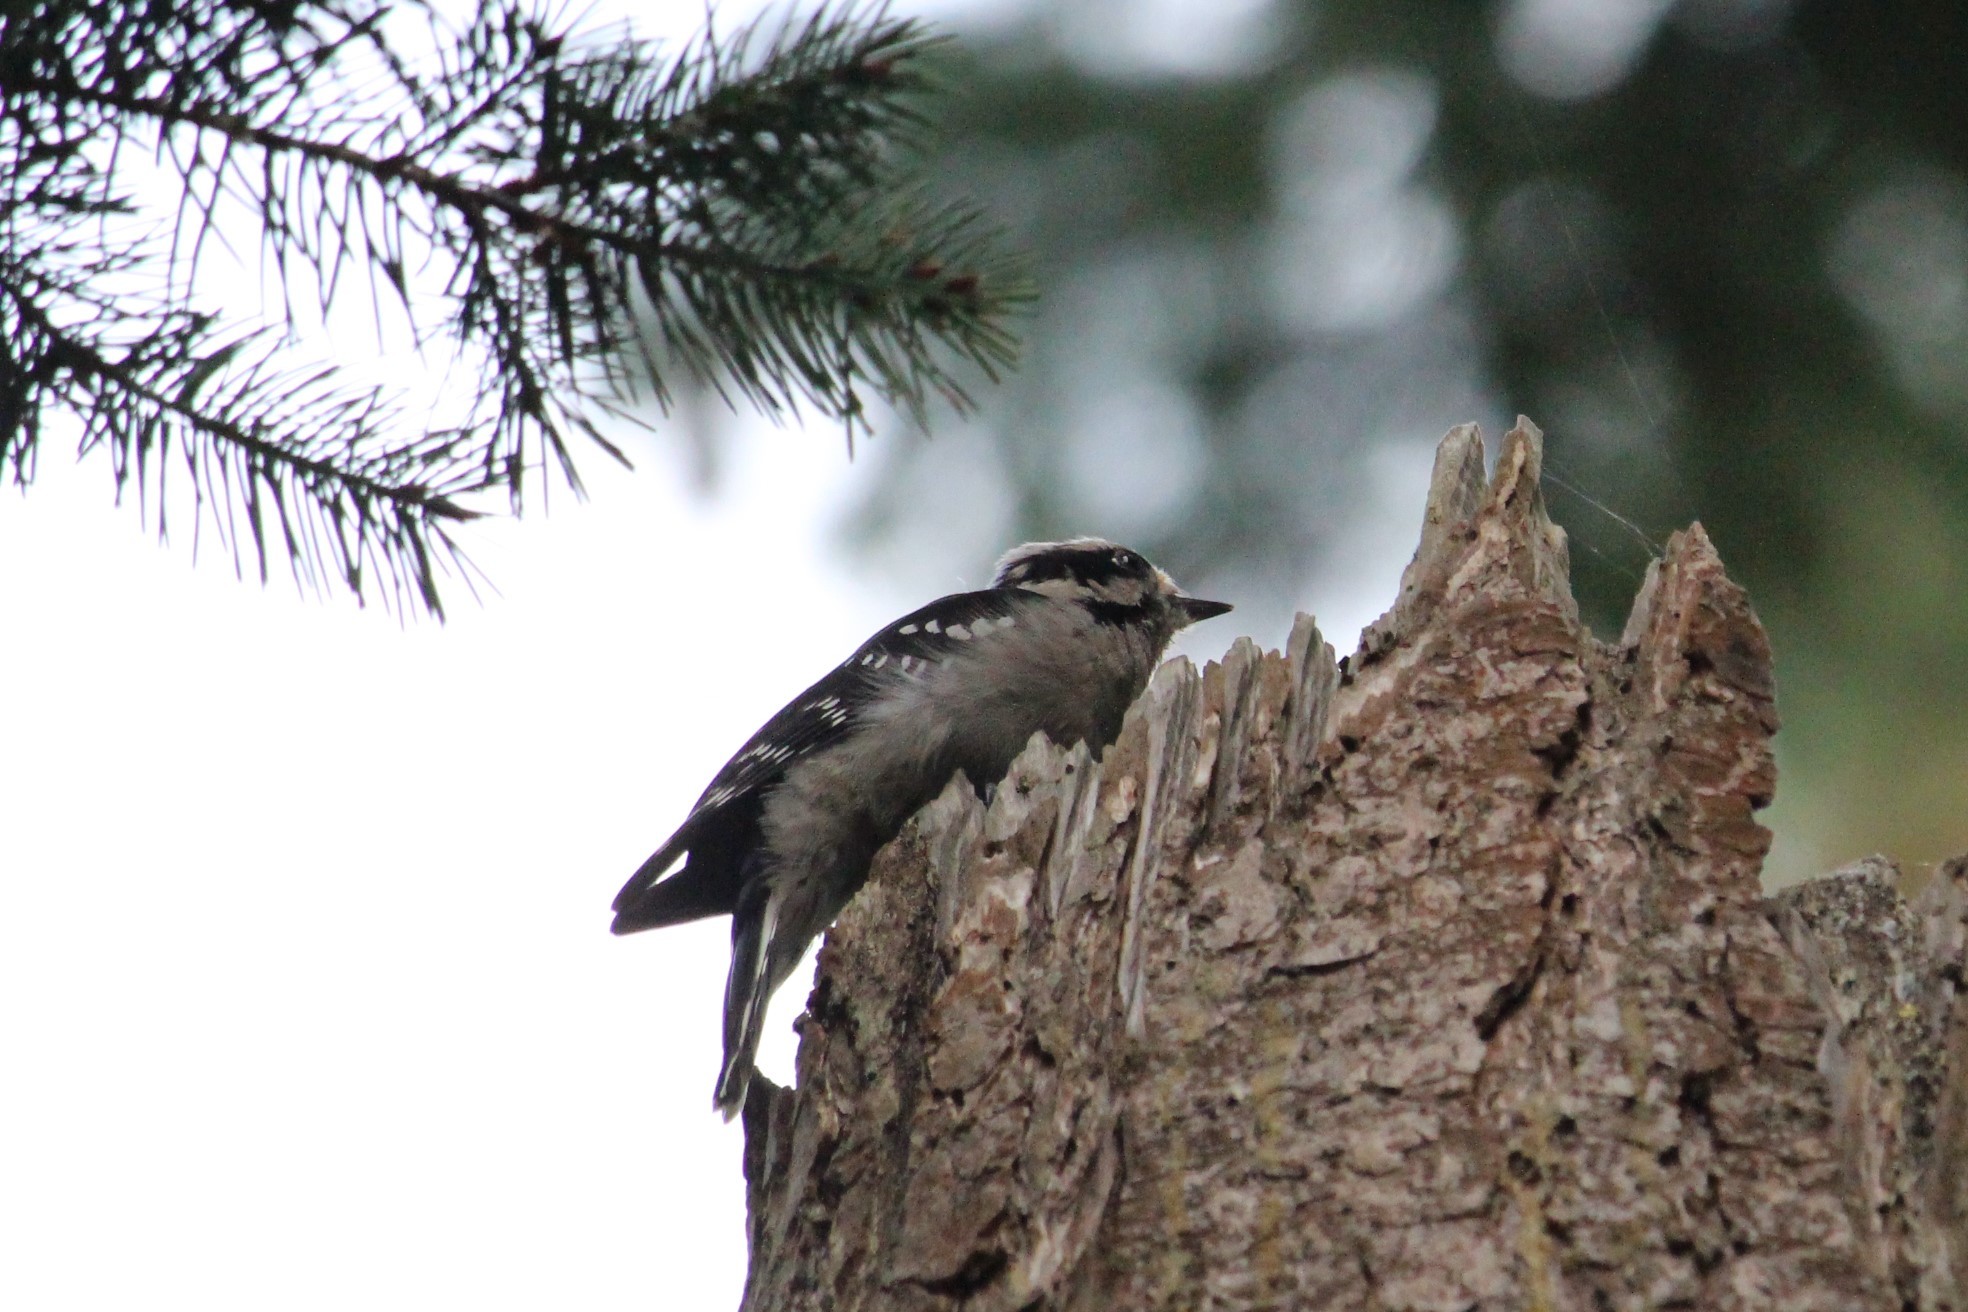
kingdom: Animalia
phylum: Chordata
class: Aves
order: Piciformes
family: Picidae
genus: Dryobates
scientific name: Dryobates pubescens
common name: Downy woodpecker
